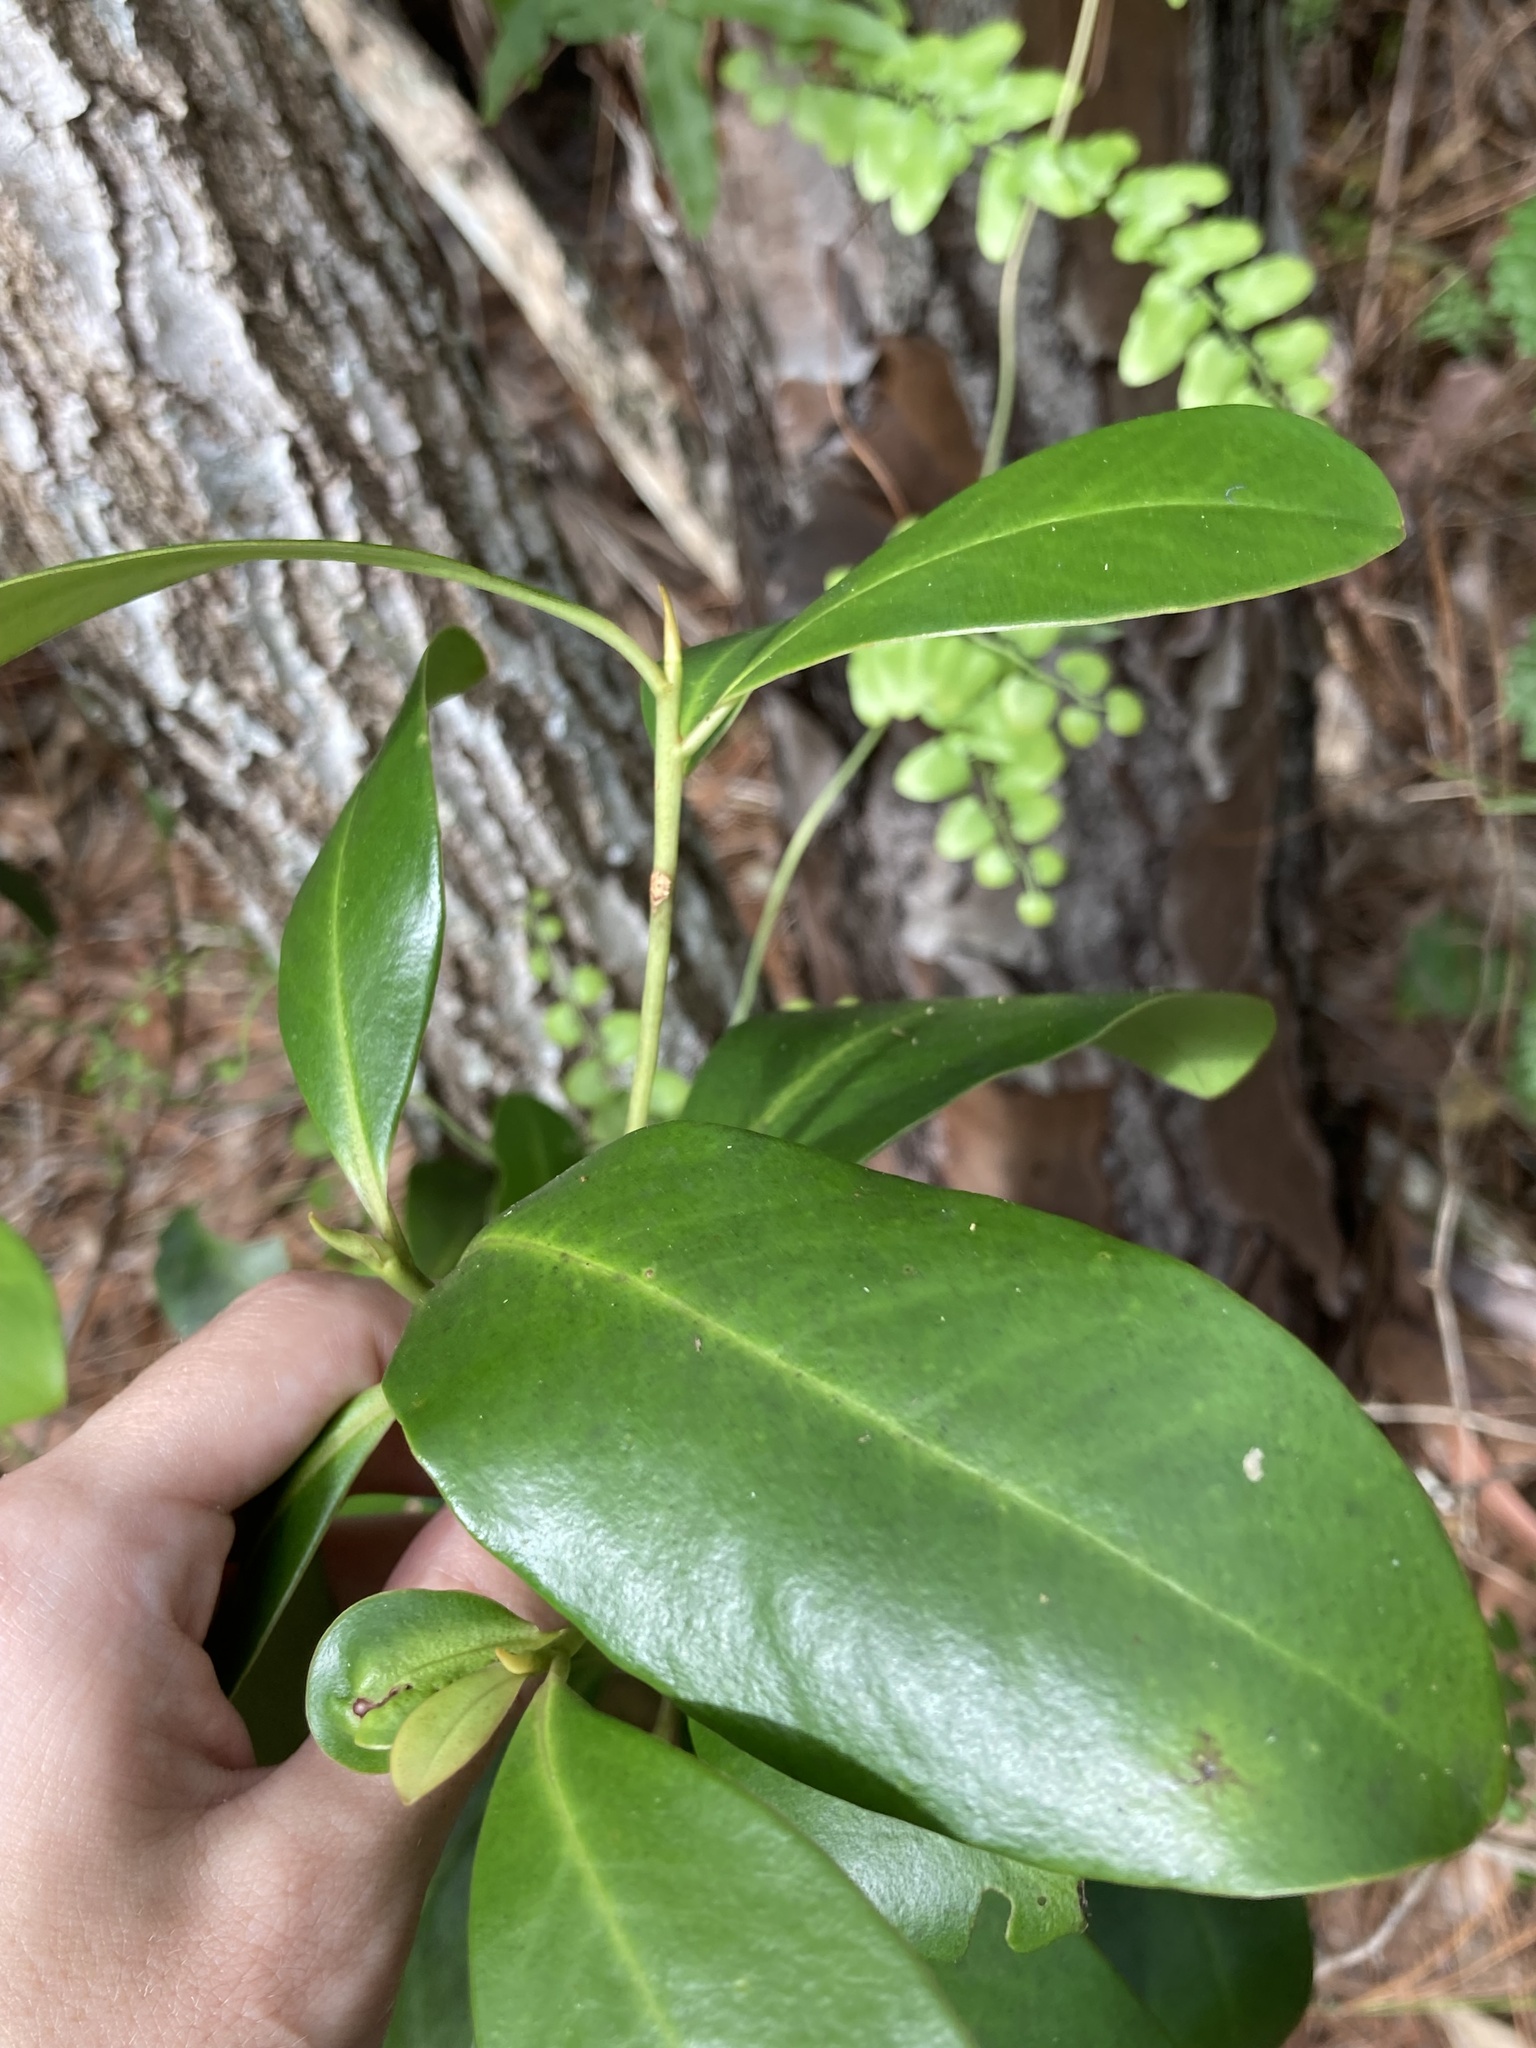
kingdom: Plantae
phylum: Tracheophyta
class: Magnoliopsida
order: Ericales
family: Primulaceae
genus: Myrsine
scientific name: Myrsine floridana
